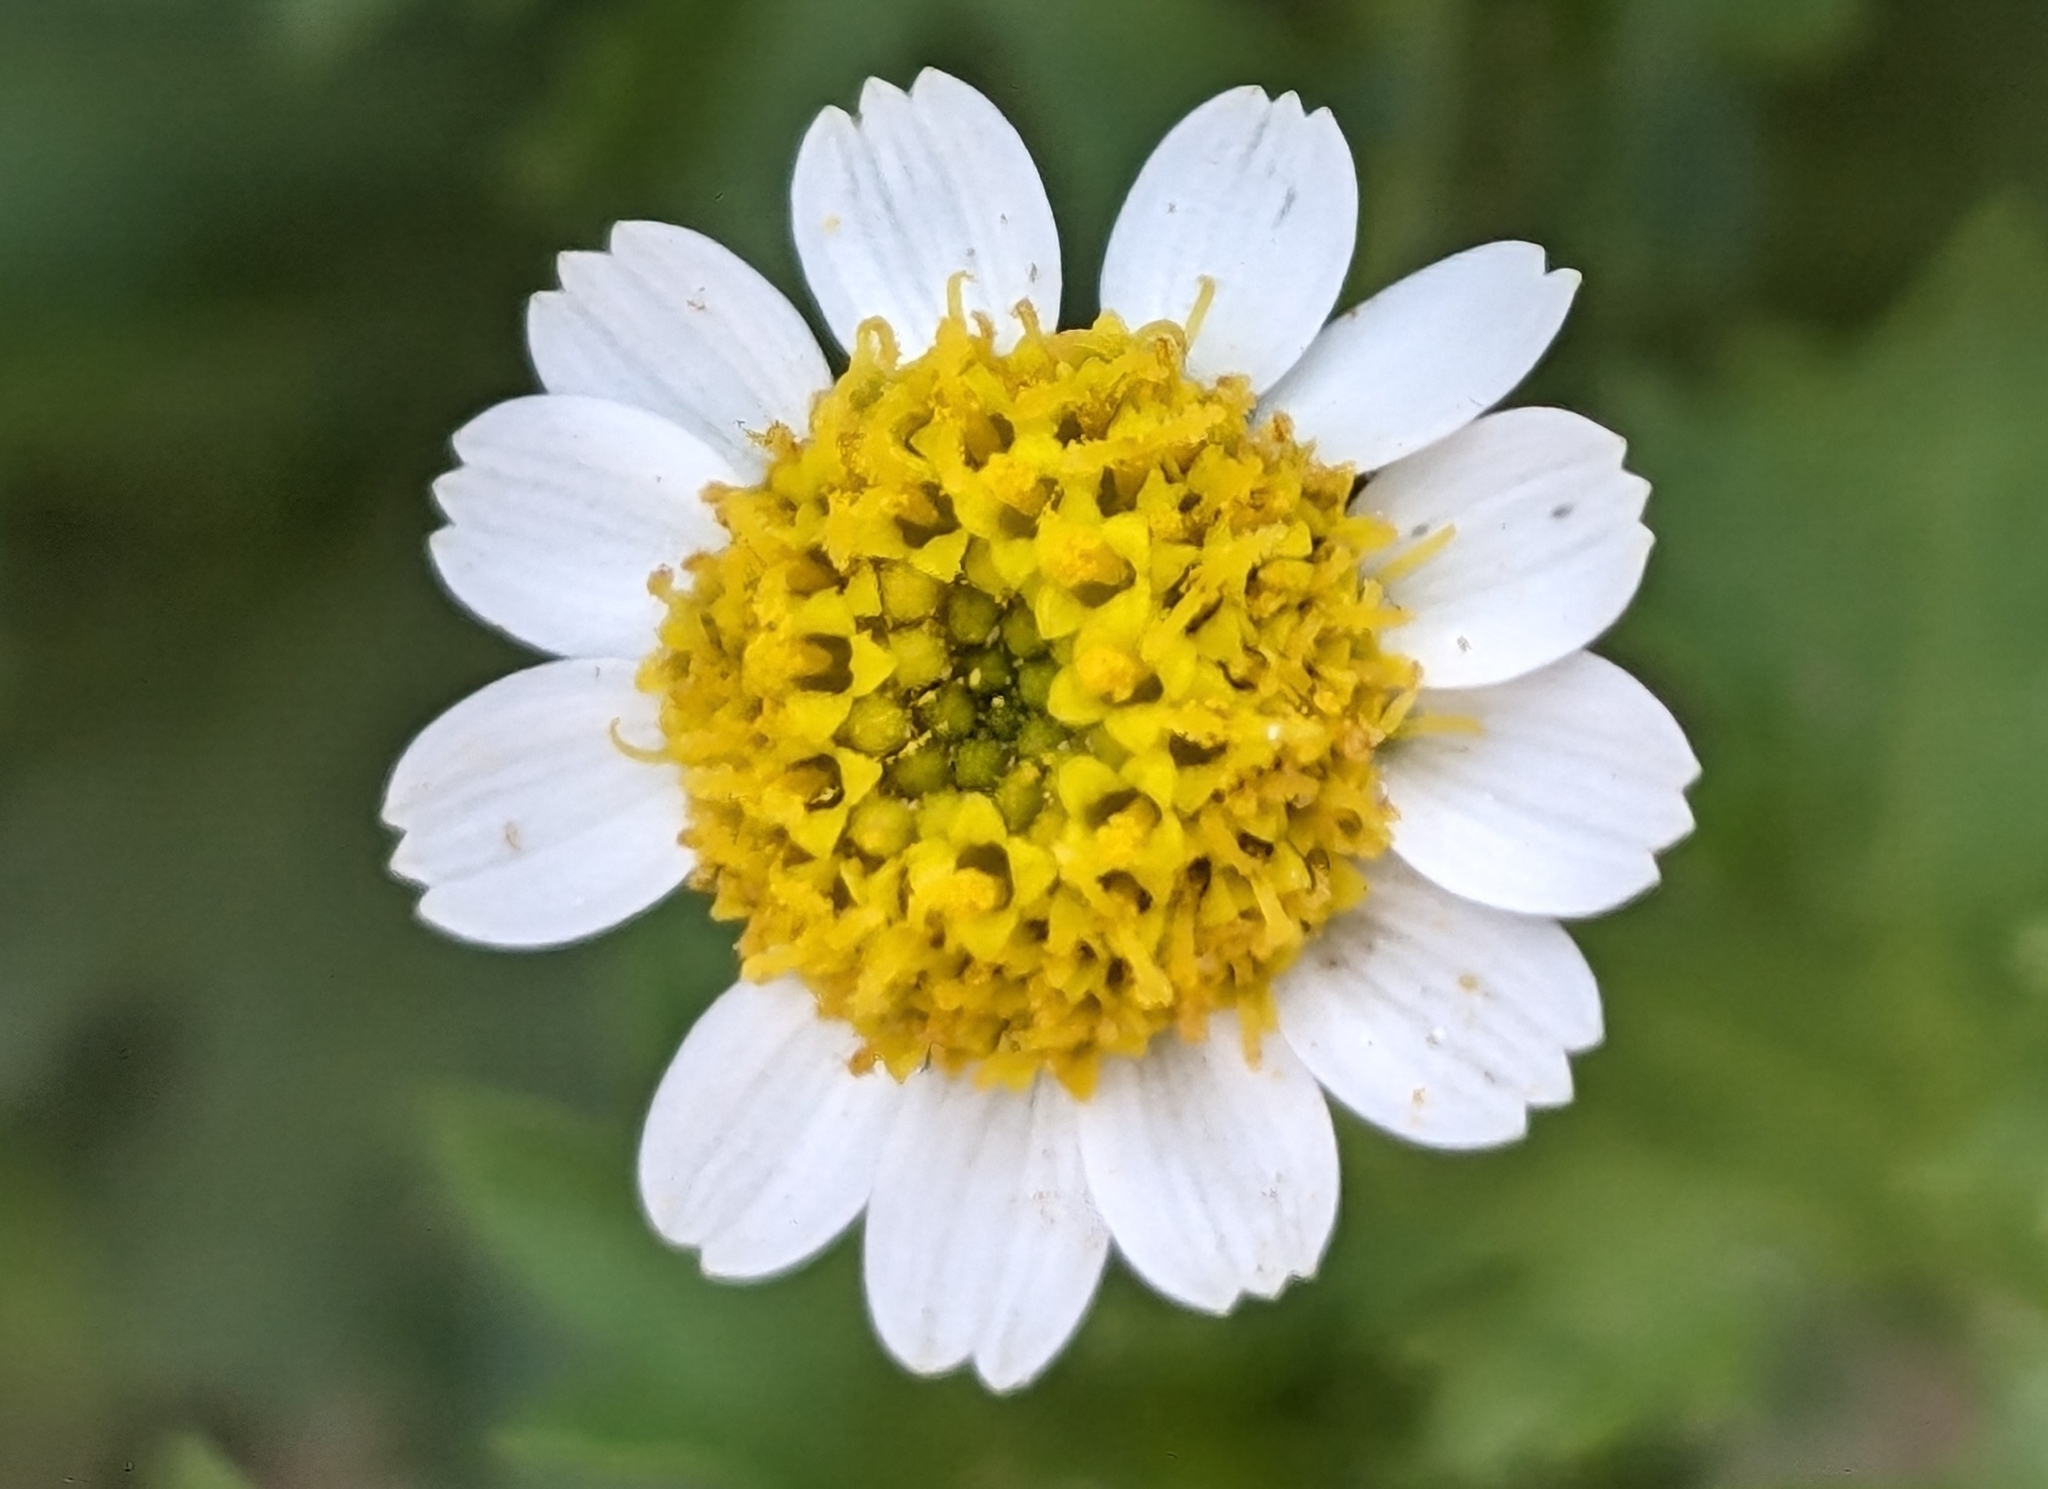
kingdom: Plantae
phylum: Tracheophyta
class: Magnoliopsida
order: Asterales
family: Asteraceae
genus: Laphamia
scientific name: Laphamia emoryi
